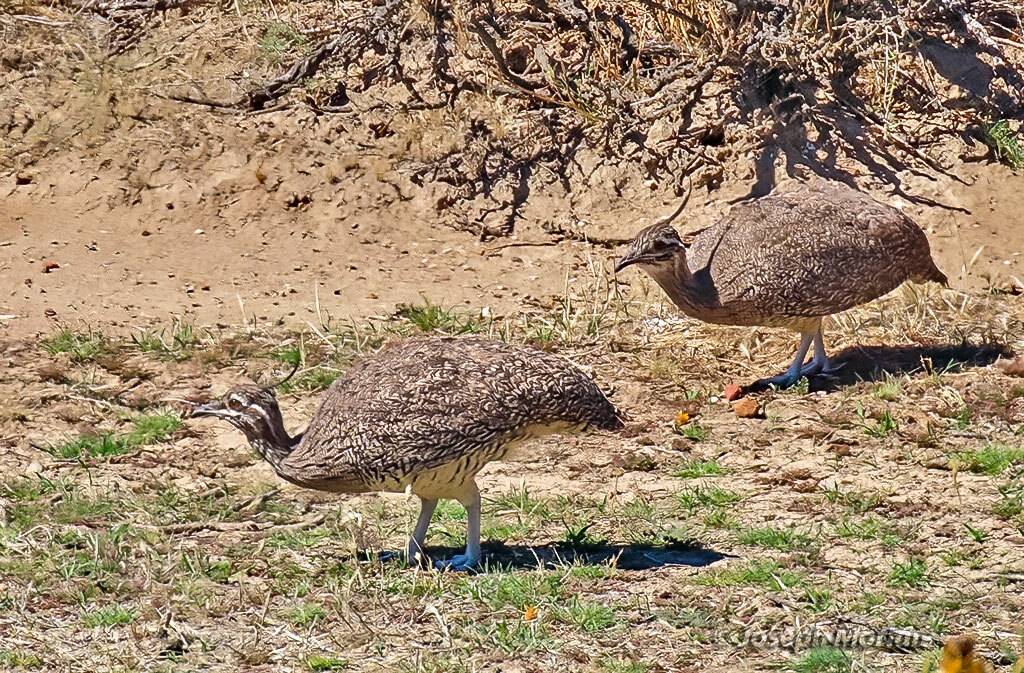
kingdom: Animalia
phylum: Chordata
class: Aves
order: Tinamiformes
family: Tinamidae
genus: Eudromia
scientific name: Eudromia elegans
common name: Elegant crested tinamou
